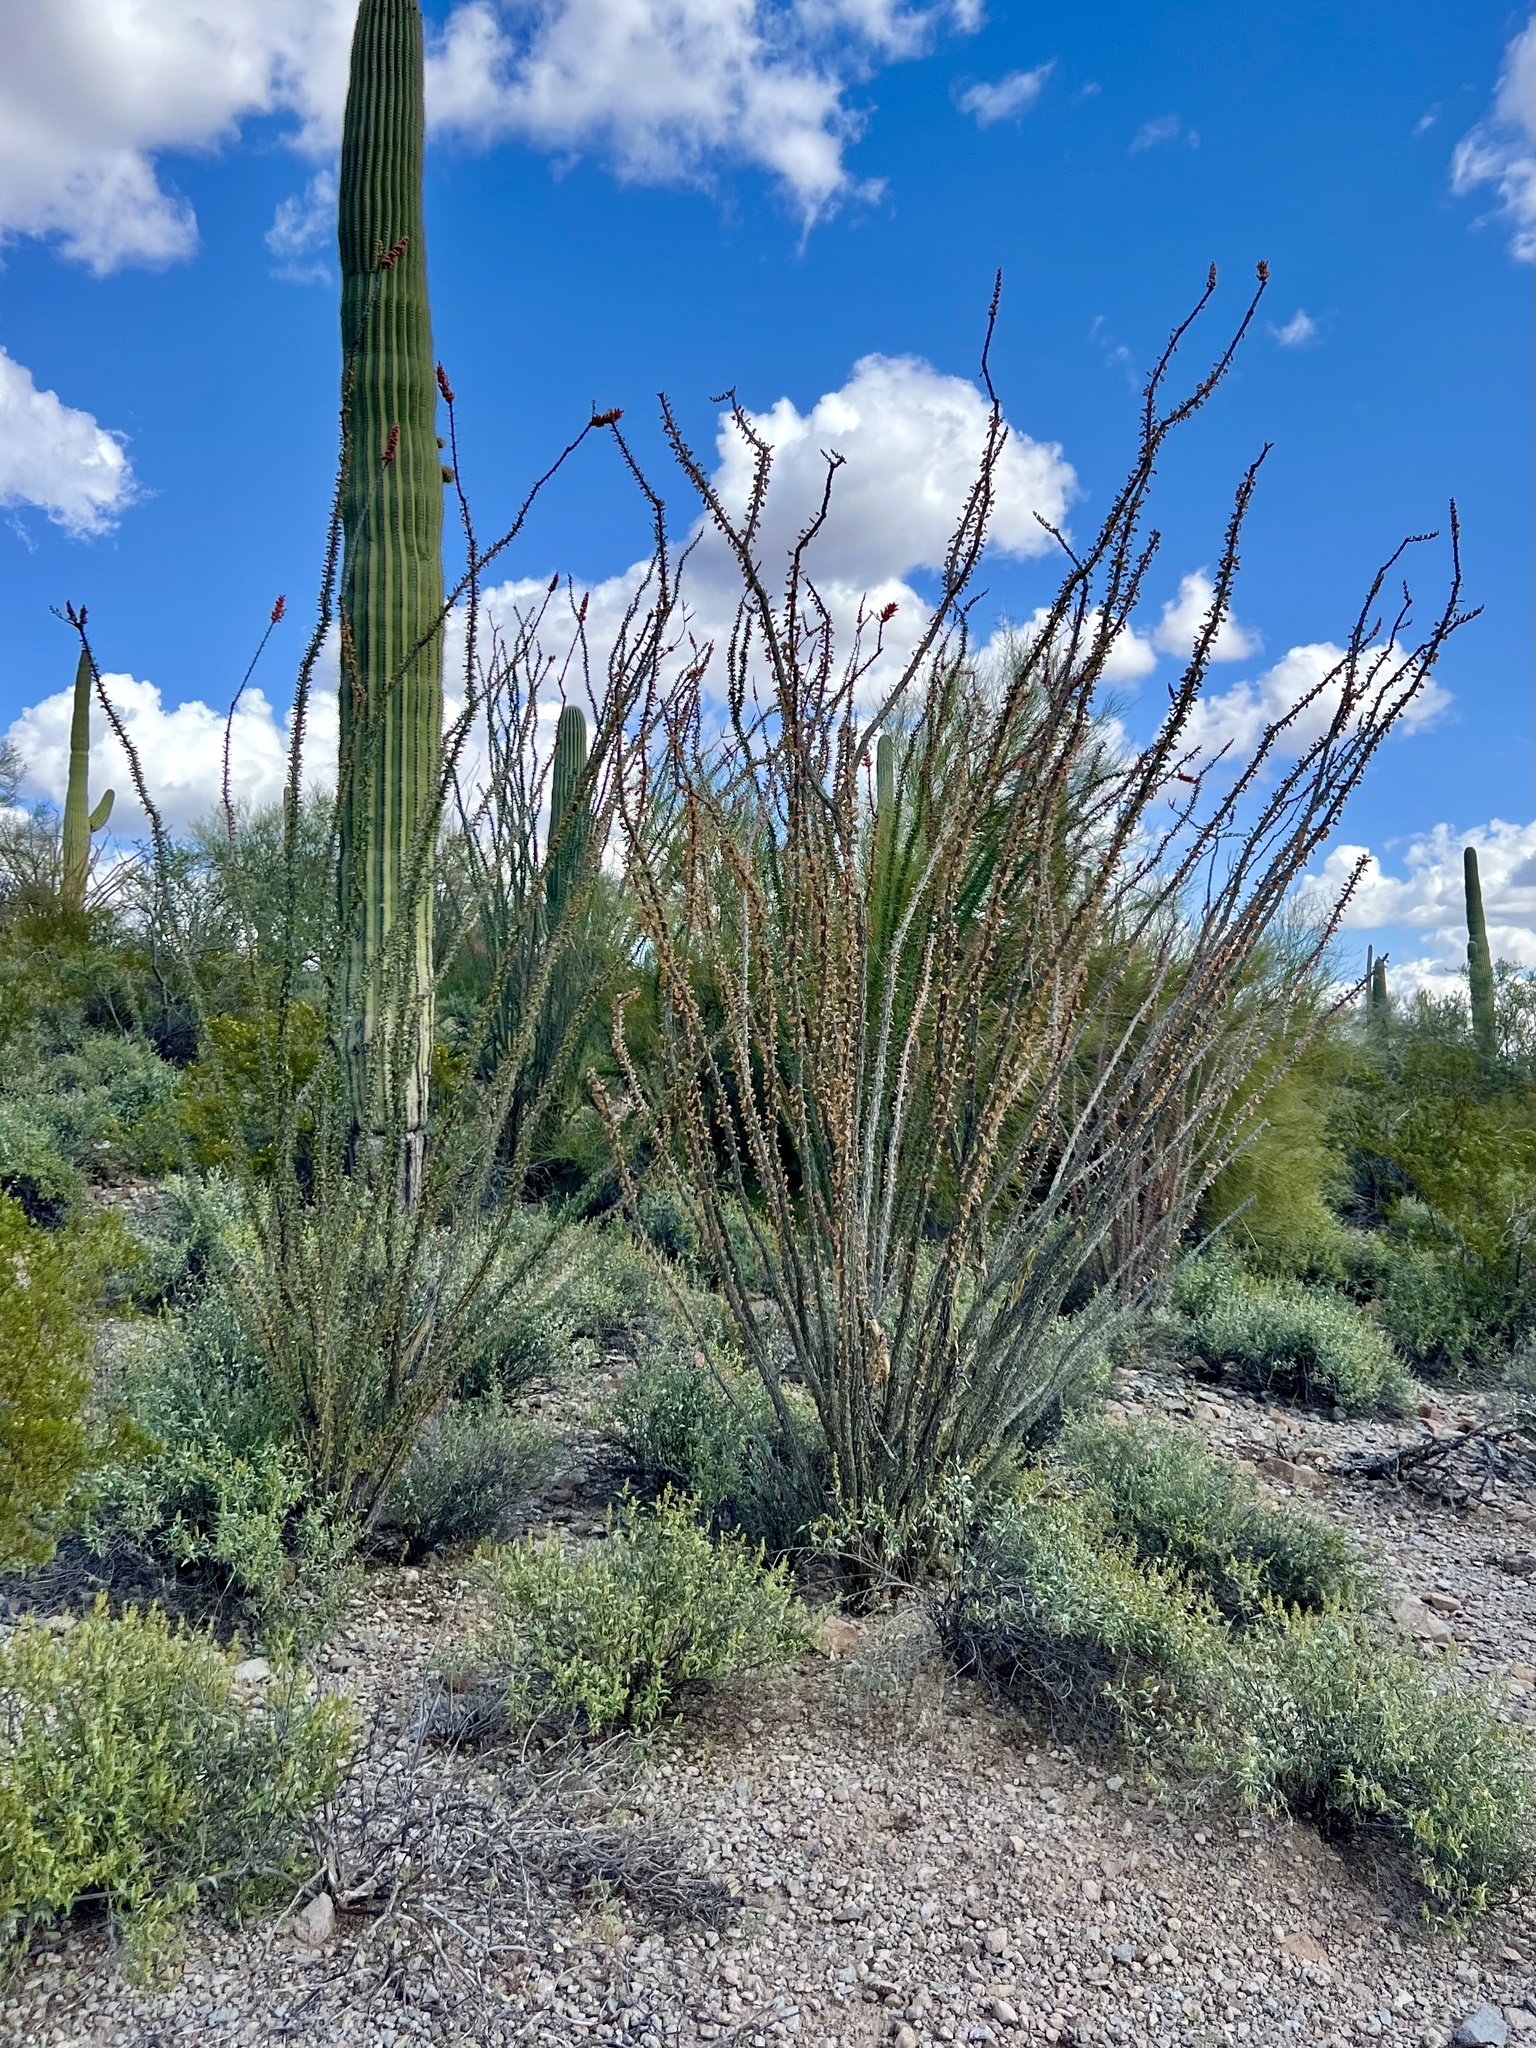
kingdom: Plantae
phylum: Tracheophyta
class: Magnoliopsida
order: Ericales
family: Fouquieriaceae
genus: Fouquieria
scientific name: Fouquieria splendens
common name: Vine-cactus
